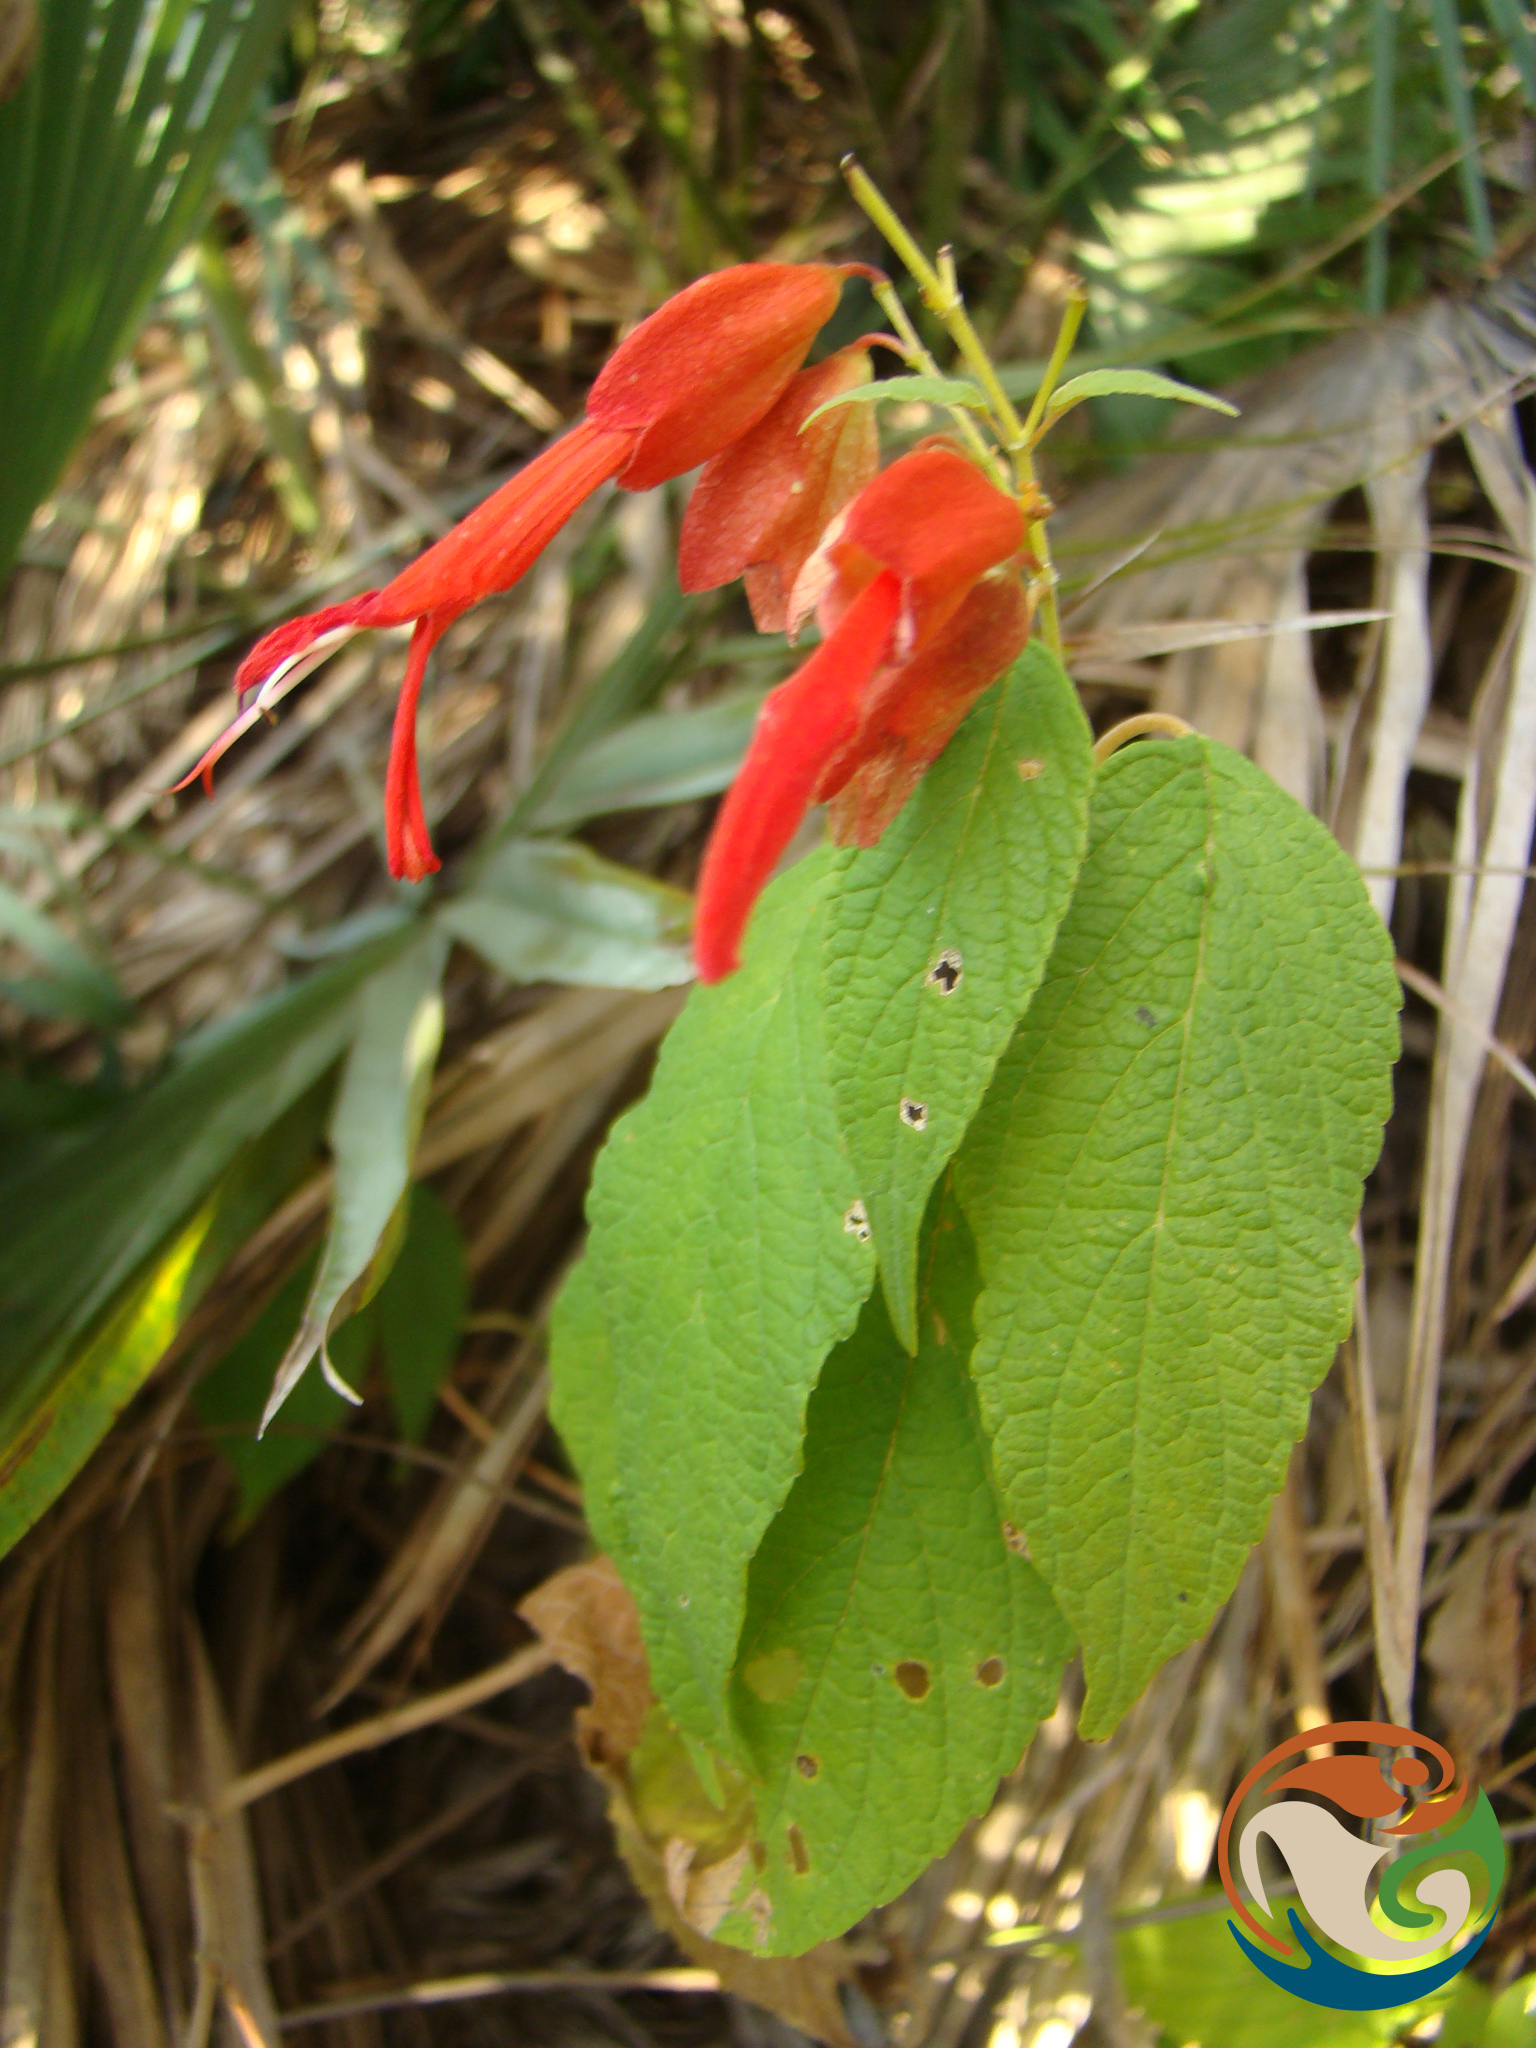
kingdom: Plantae
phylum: Tracheophyta
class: Magnoliopsida
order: Lamiales
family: Lamiaceae
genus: Salvia
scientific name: Salvia sessei
